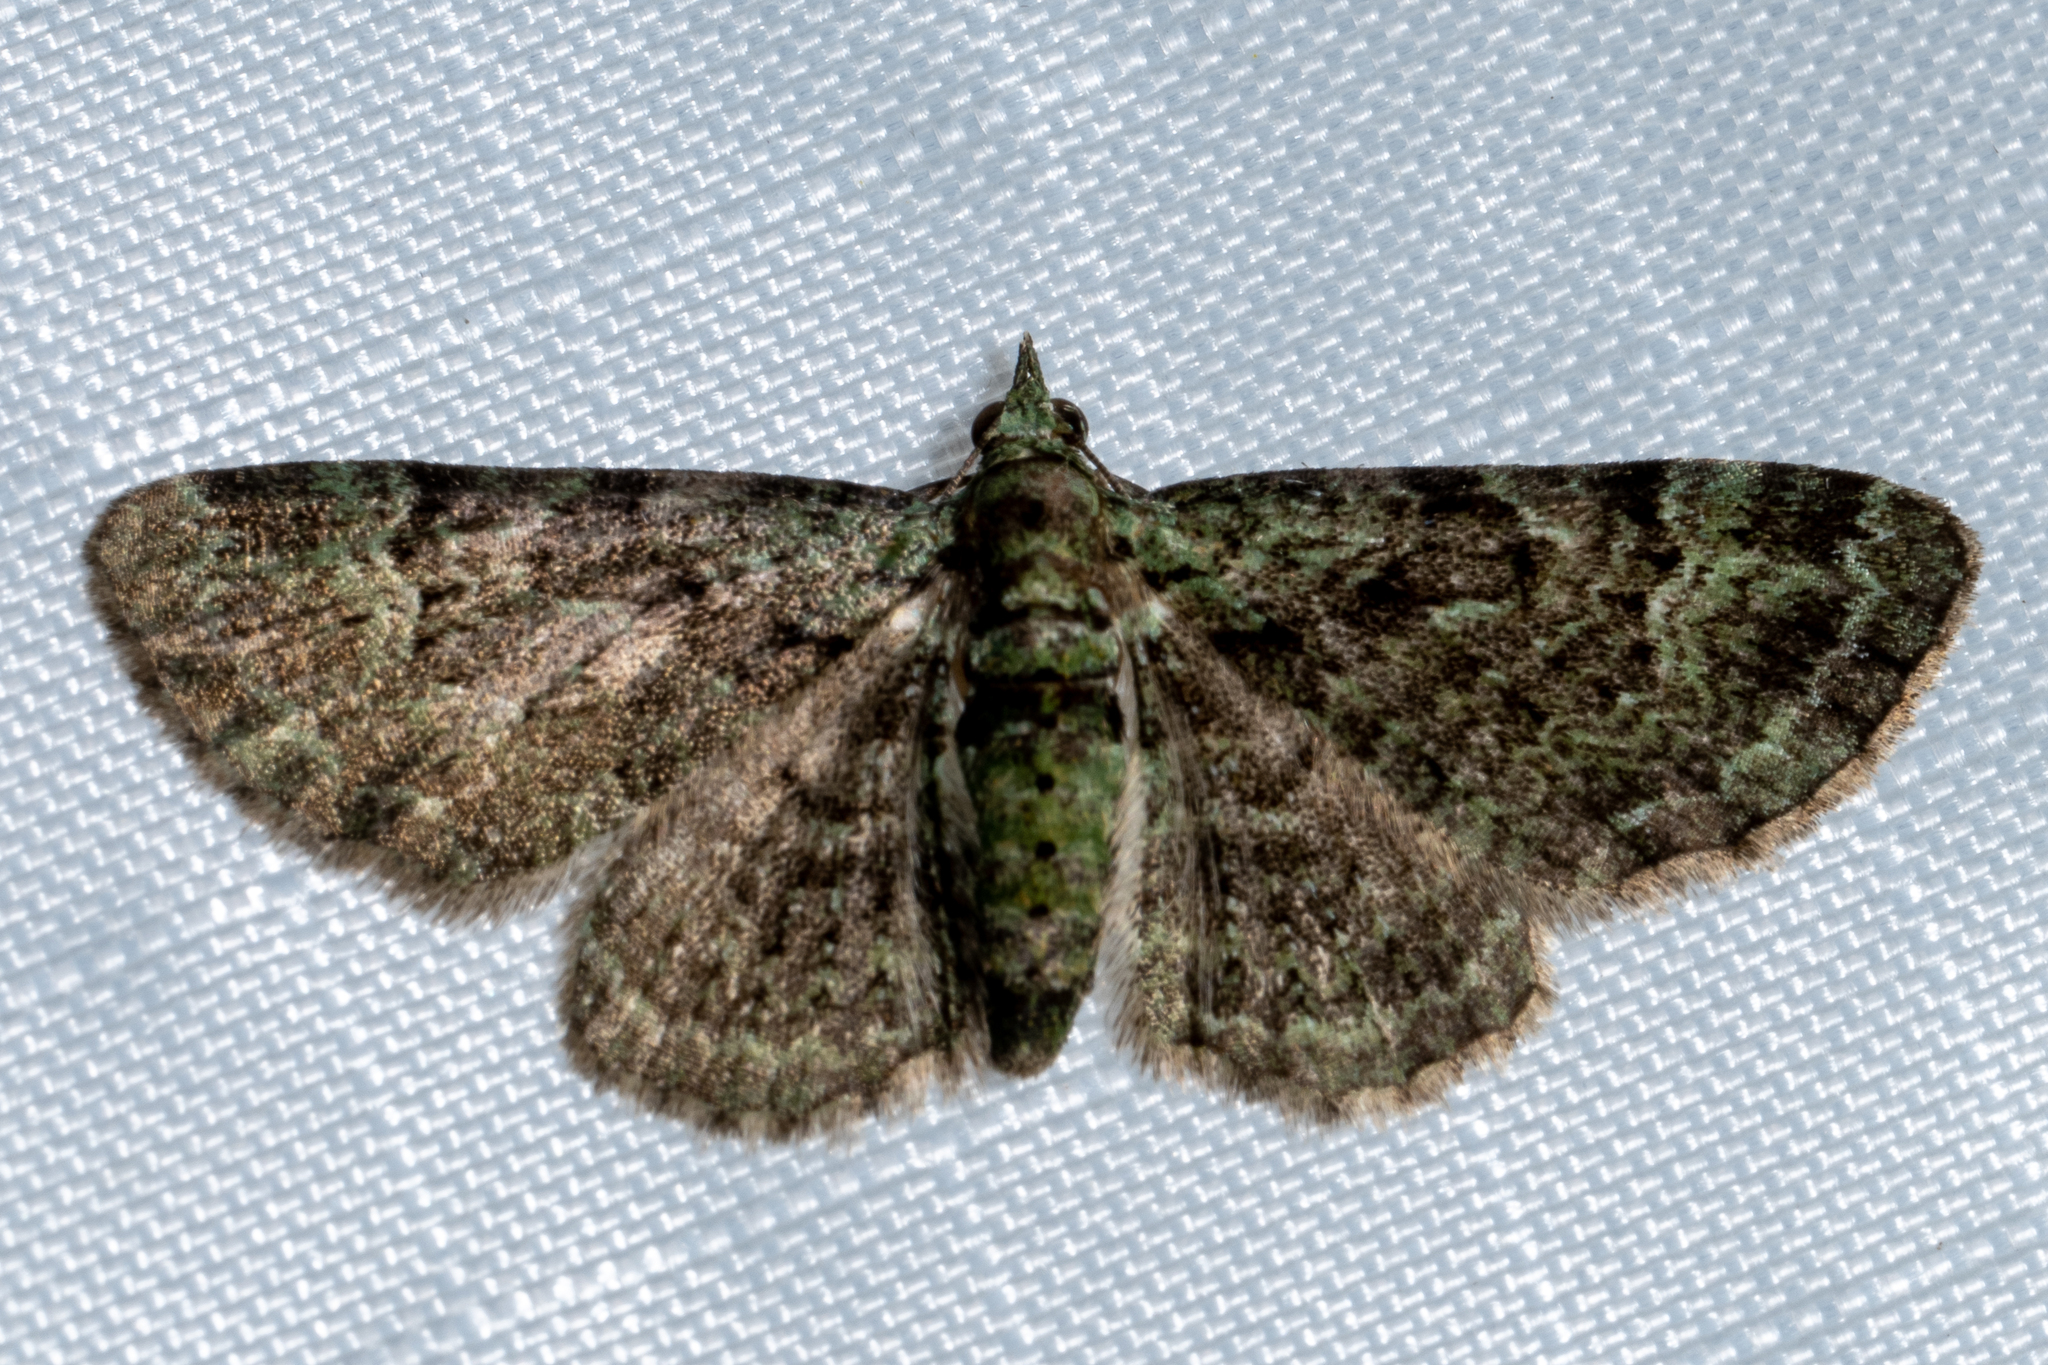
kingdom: Animalia
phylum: Arthropoda
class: Insecta
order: Lepidoptera
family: Geometridae
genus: Pasiphila
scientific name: Pasiphila rectangulata
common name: Green pug
